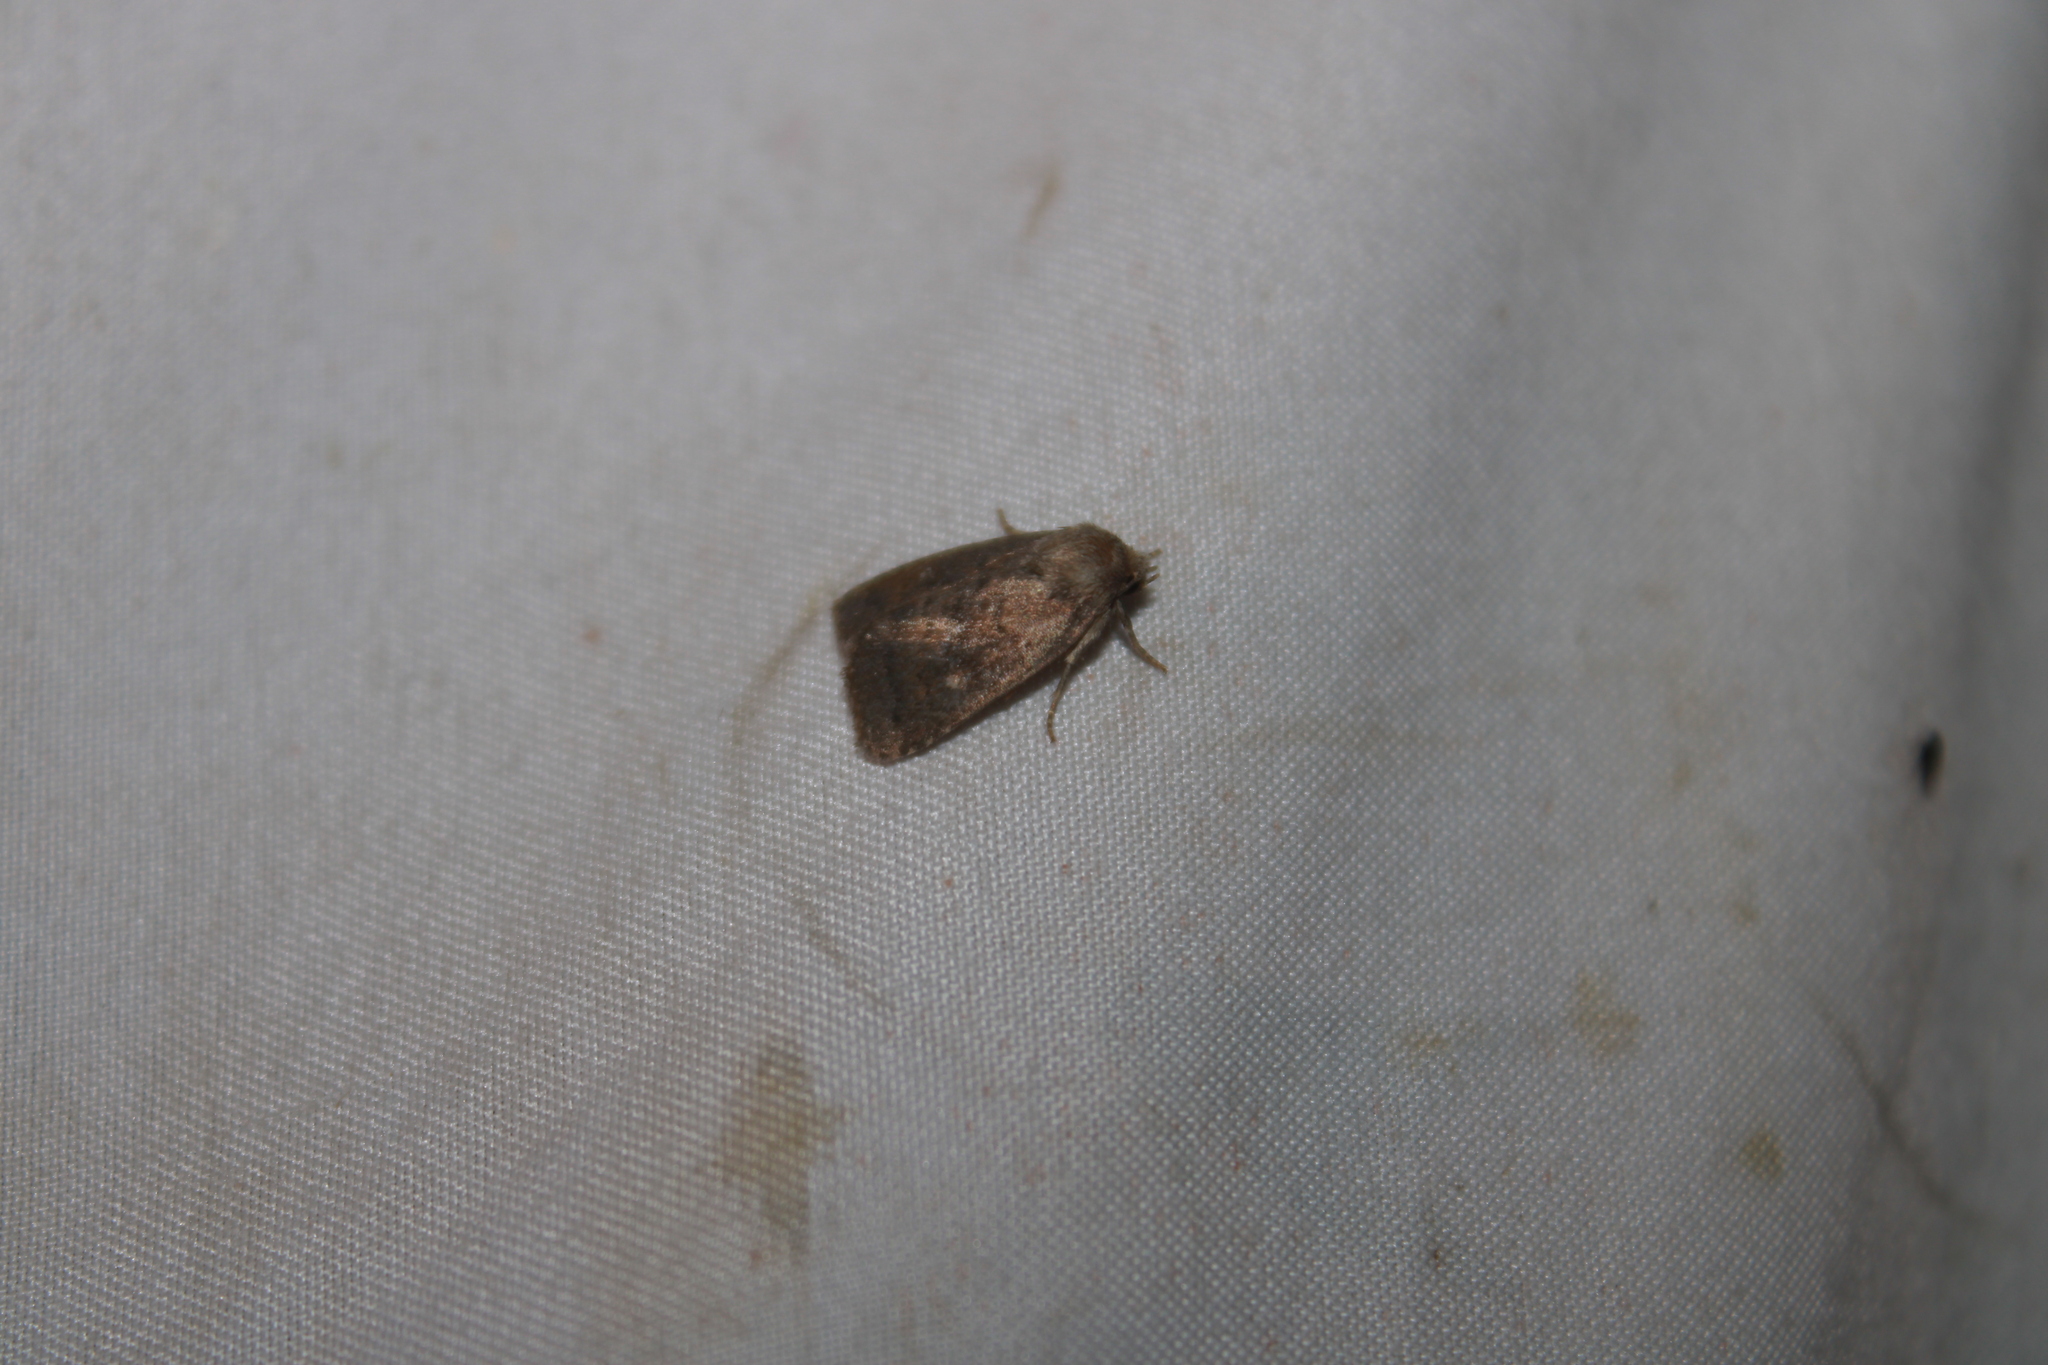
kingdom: Animalia
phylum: Arthropoda
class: Insecta
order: Lepidoptera
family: Noctuidae
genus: Pseudorthodes
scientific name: Pseudorthodes vecors
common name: Small brown quaker
